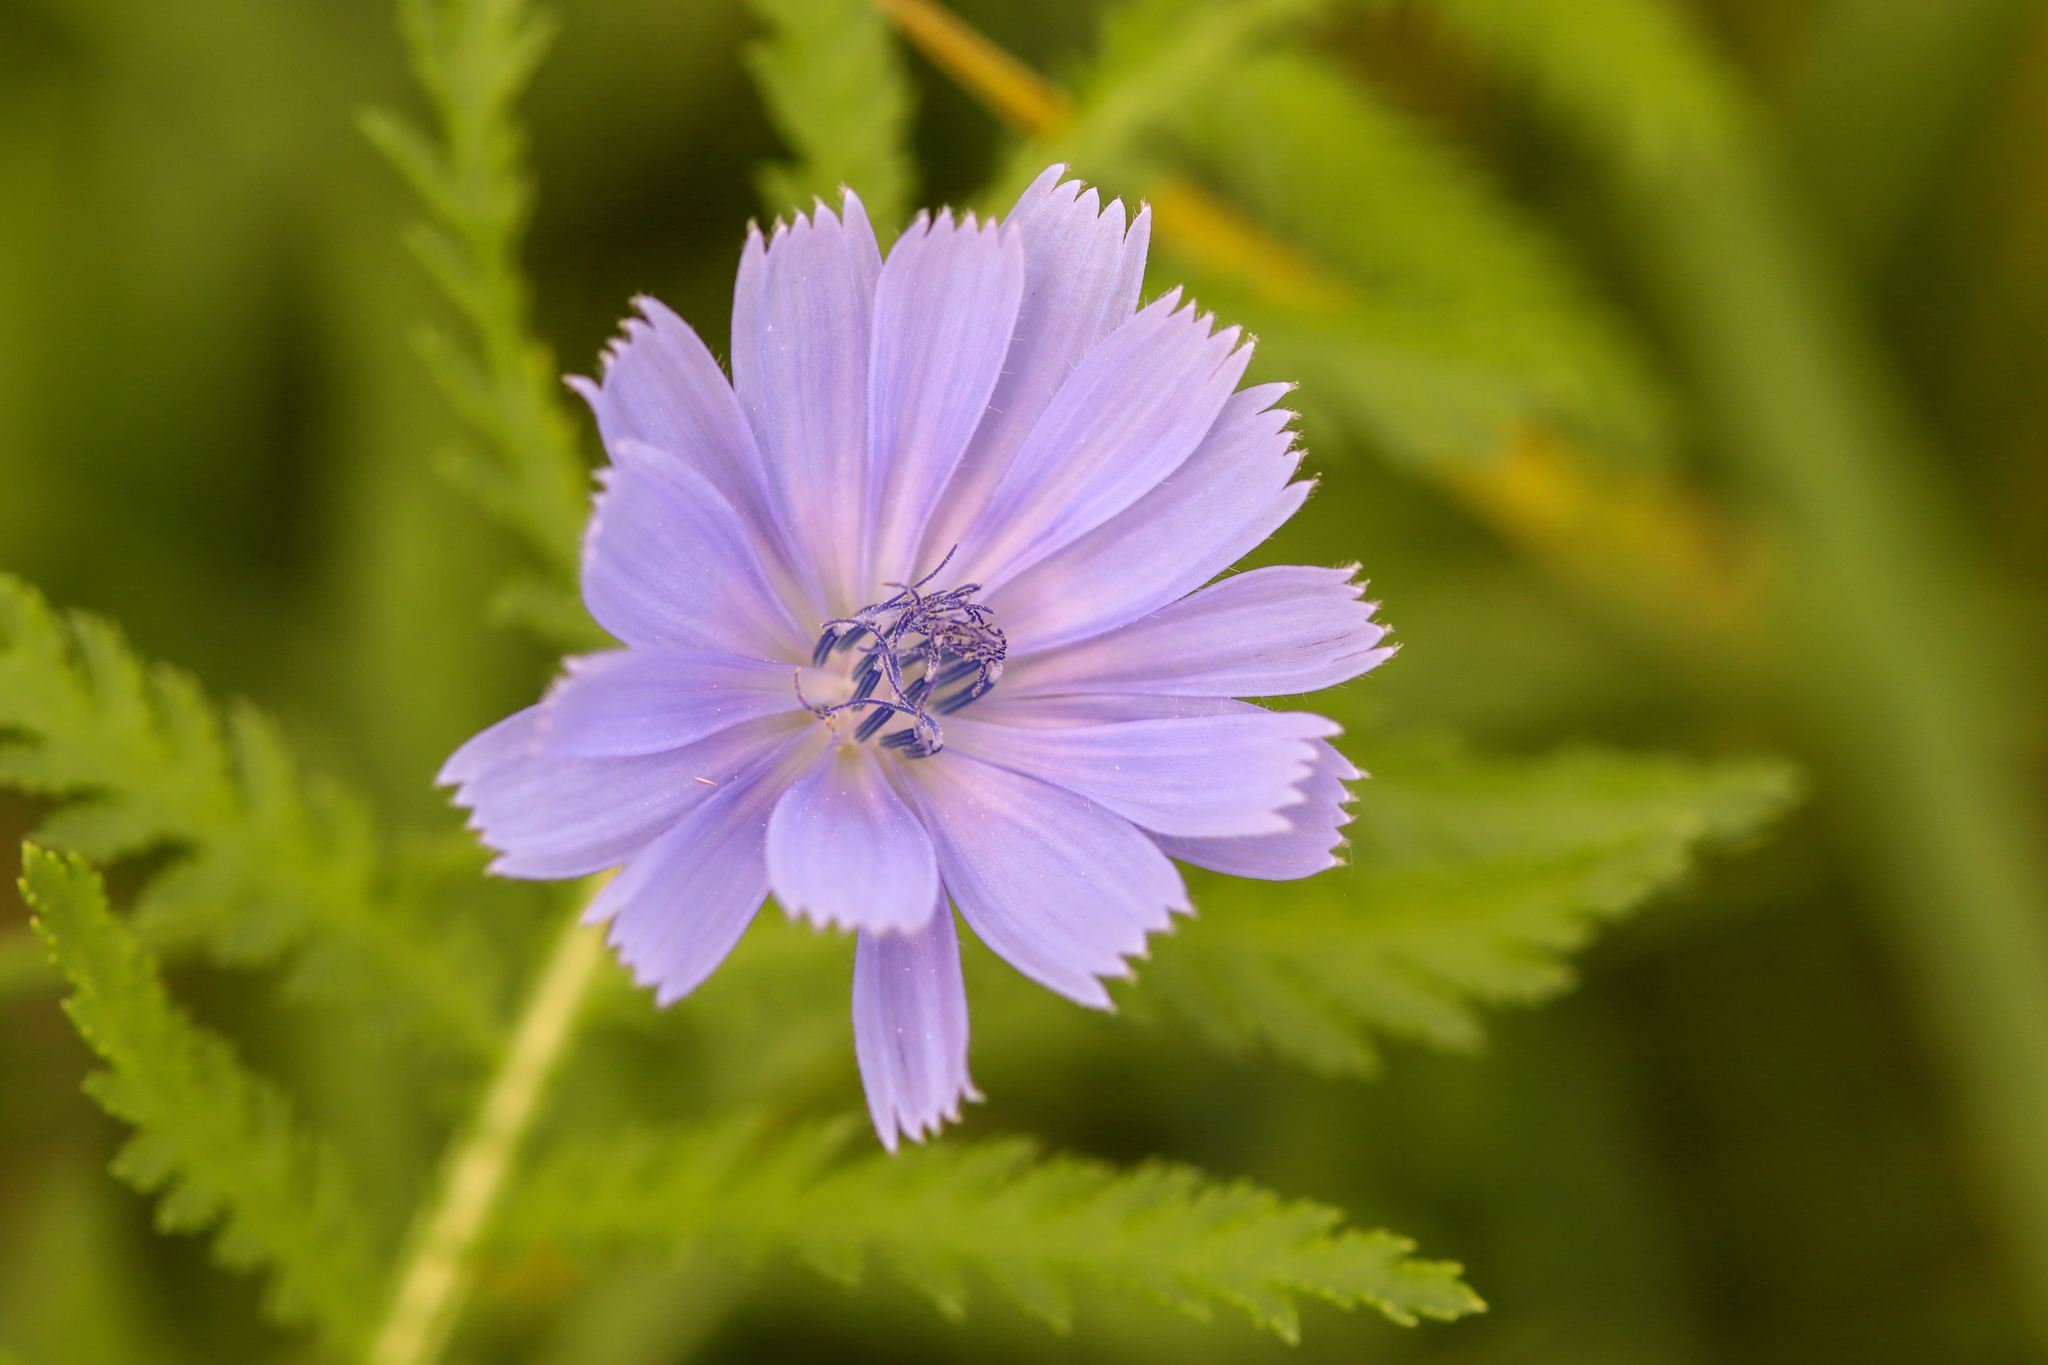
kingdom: Plantae
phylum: Tracheophyta
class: Magnoliopsida
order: Asterales
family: Asteraceae
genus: Cichorium
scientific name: Cichorium intybus
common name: Chicory
